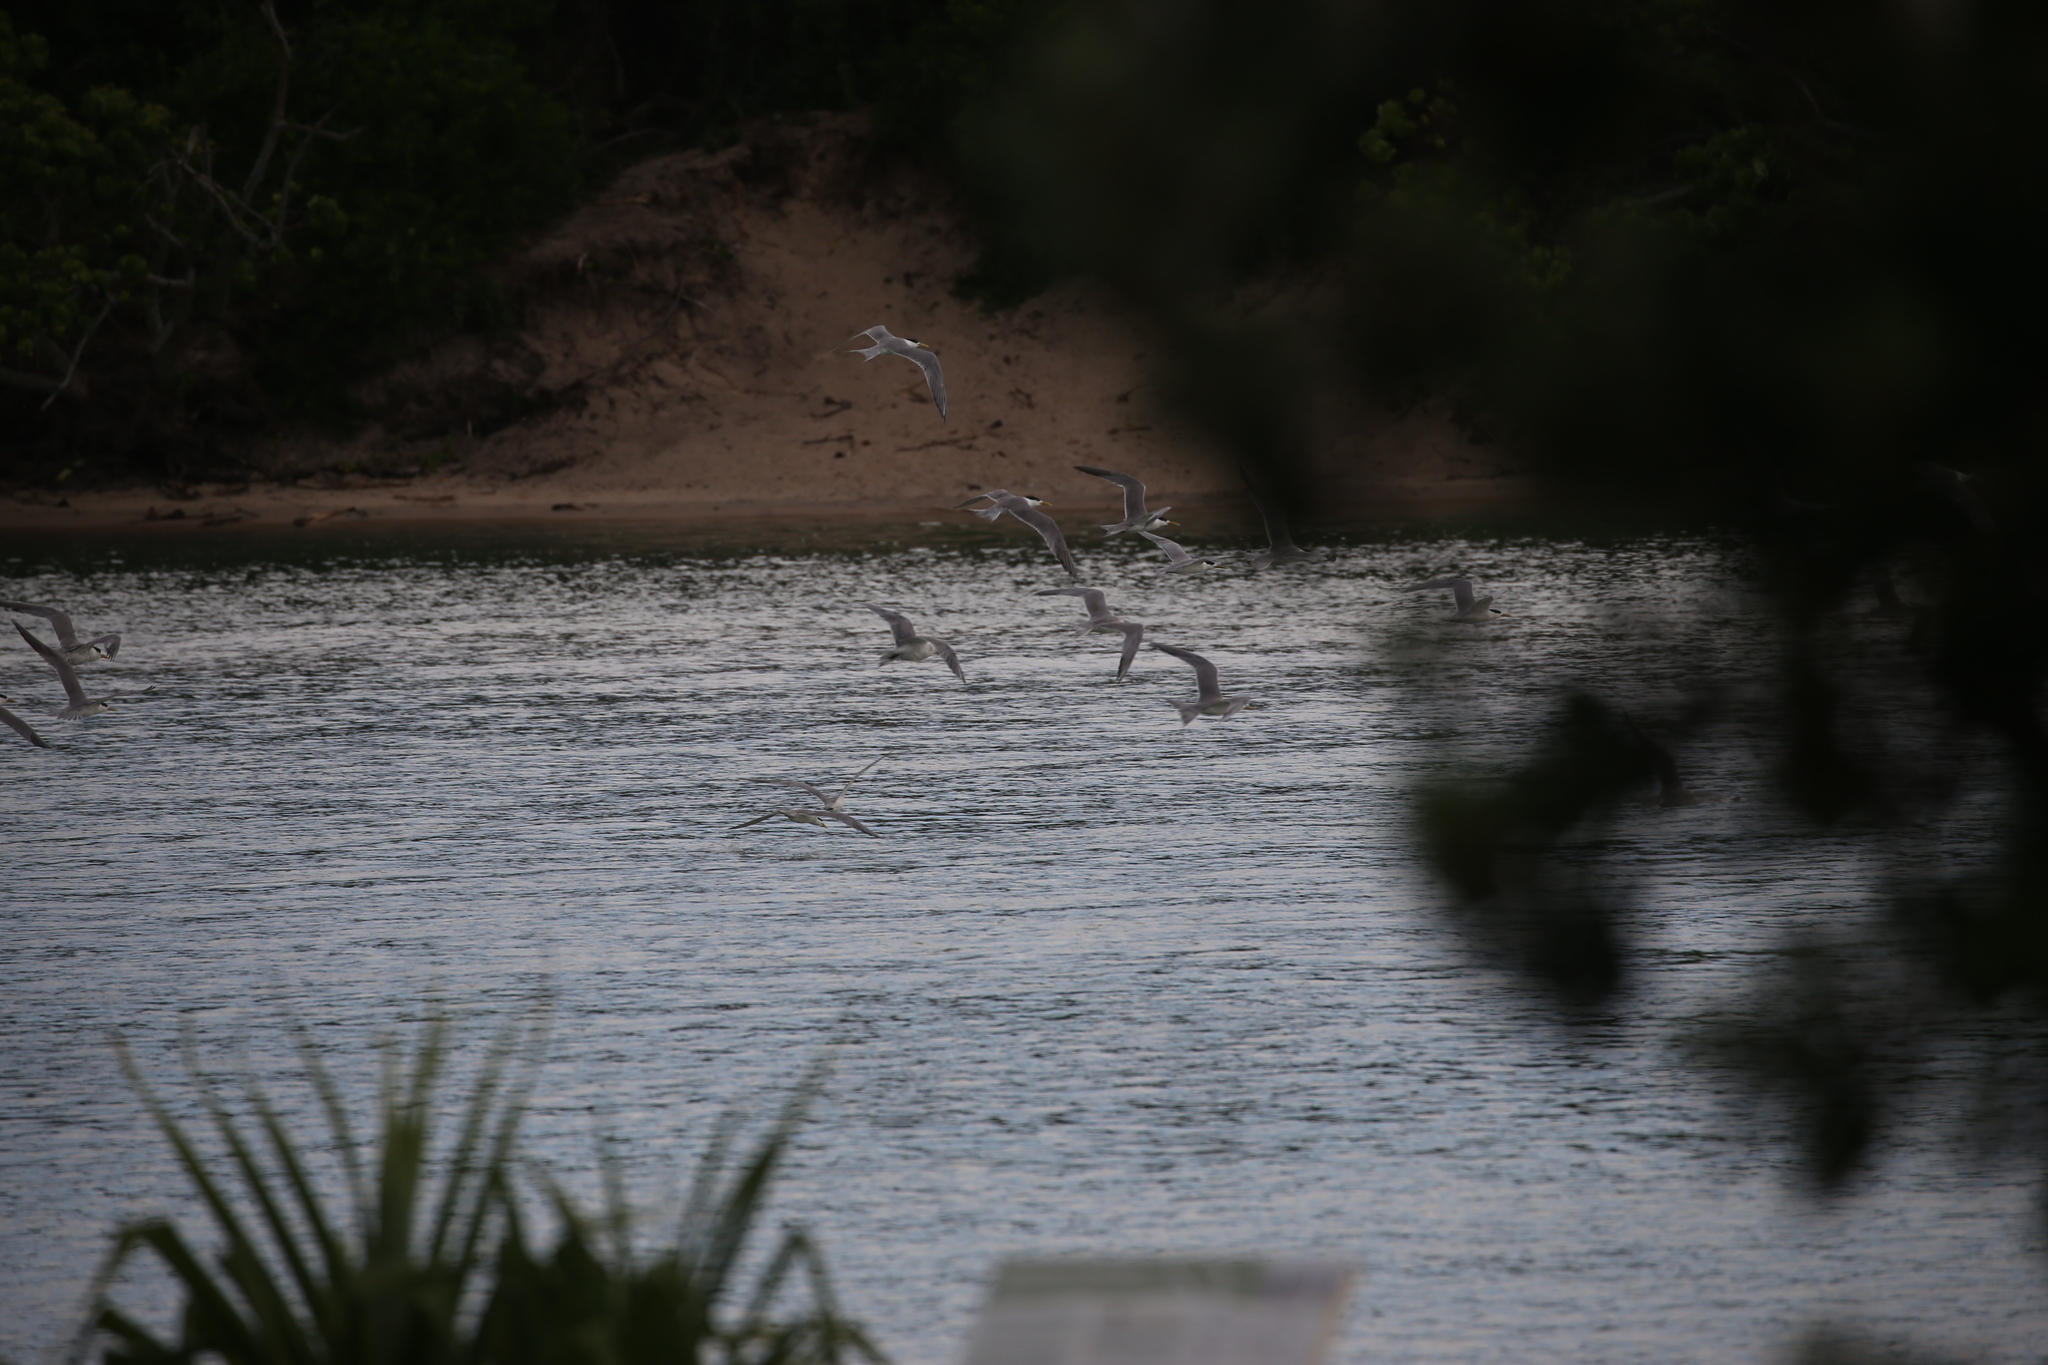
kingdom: Animalia
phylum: Chordata
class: Aves
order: Charadriiformes
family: Laridae
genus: Thalasseus
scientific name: Thalasseus bergii
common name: Greater crested tern
